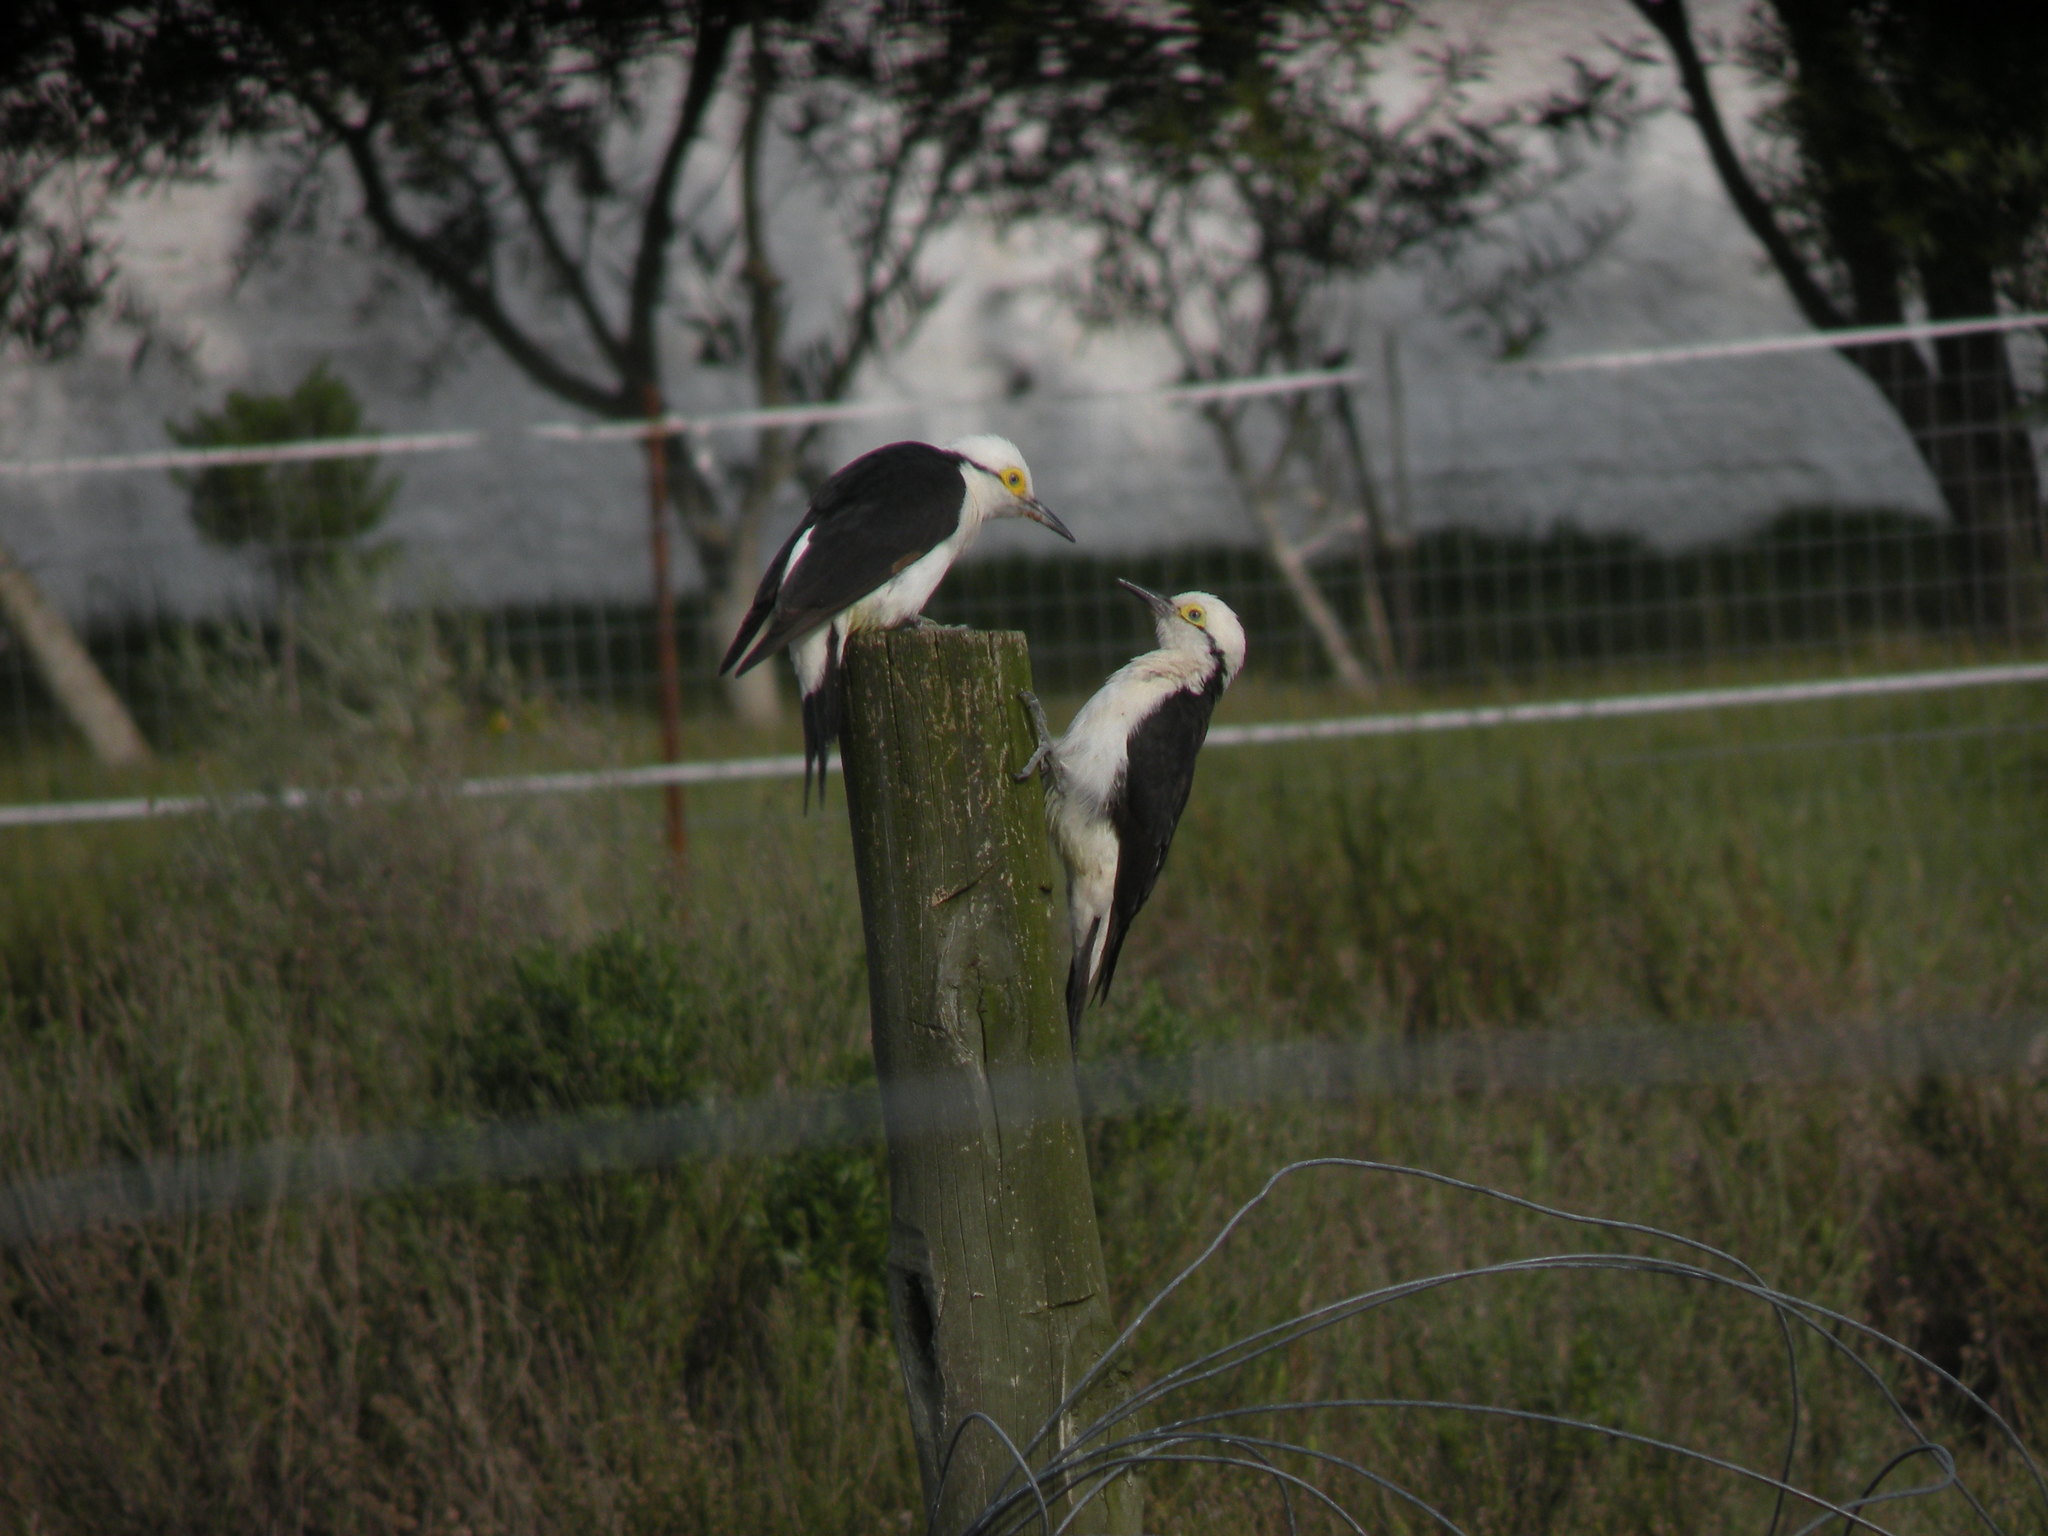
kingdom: Animalia
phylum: Chordata
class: Aves
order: Piciformes
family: Picidae
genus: Melanerpes
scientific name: Melanerpes candidus
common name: White woodpecker
